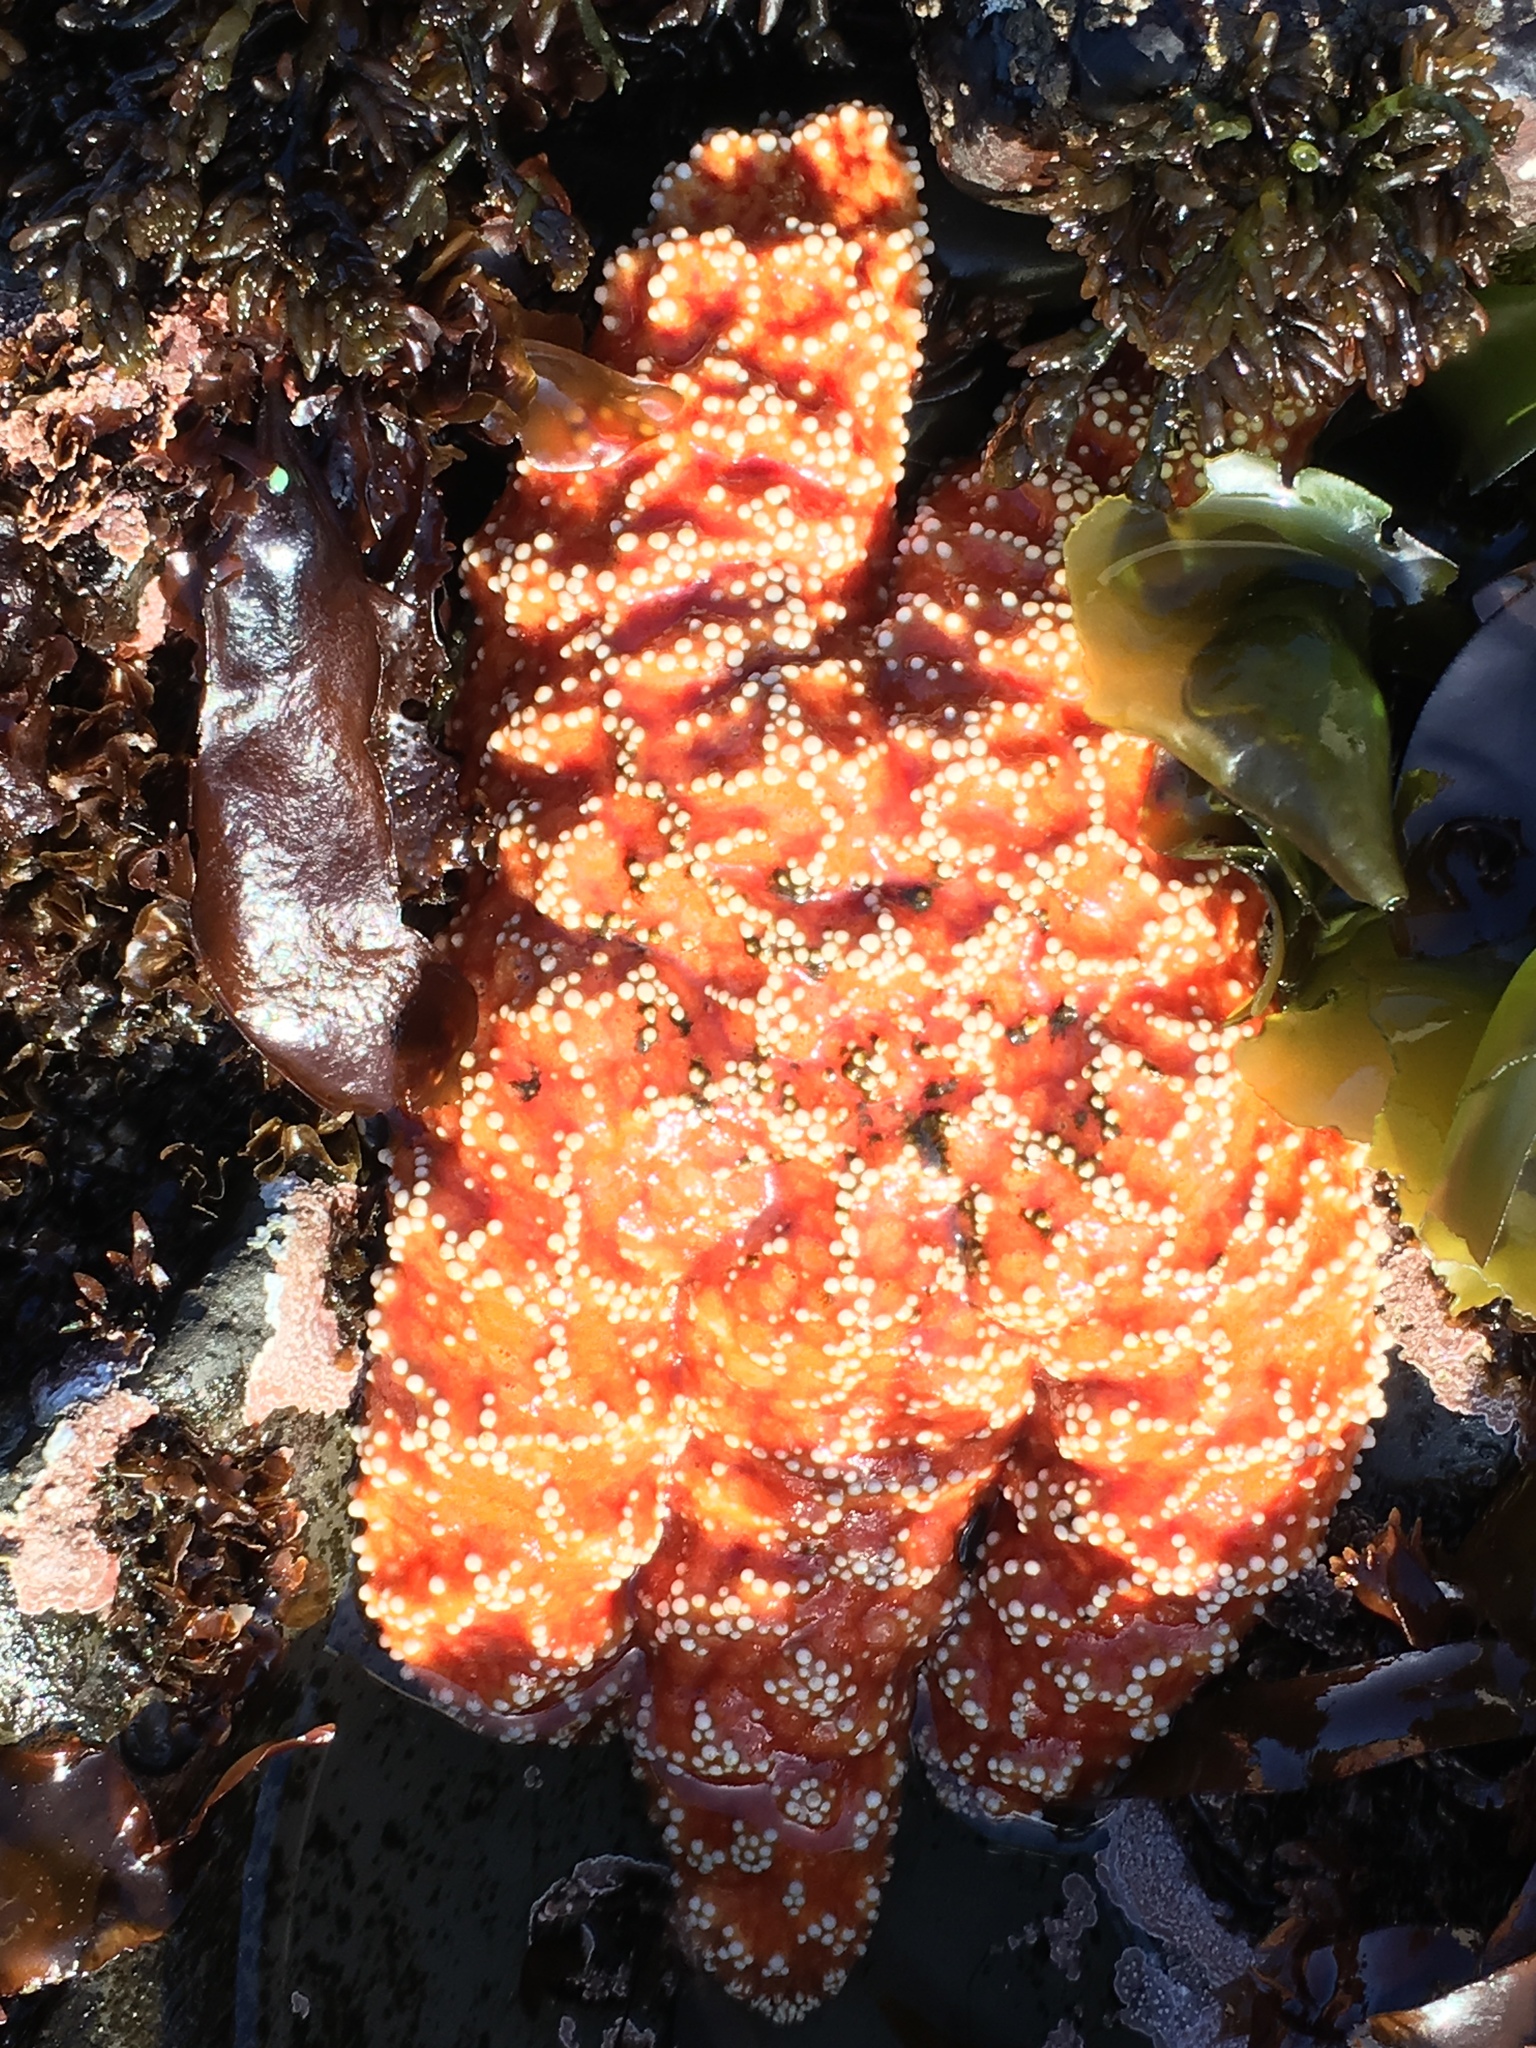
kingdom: Animalia
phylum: Echinodermata
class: Asteroidea
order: Forcipulatida
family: Asteriidae
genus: Pisaster
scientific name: Pisaster ochraceus
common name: Ochre stars
